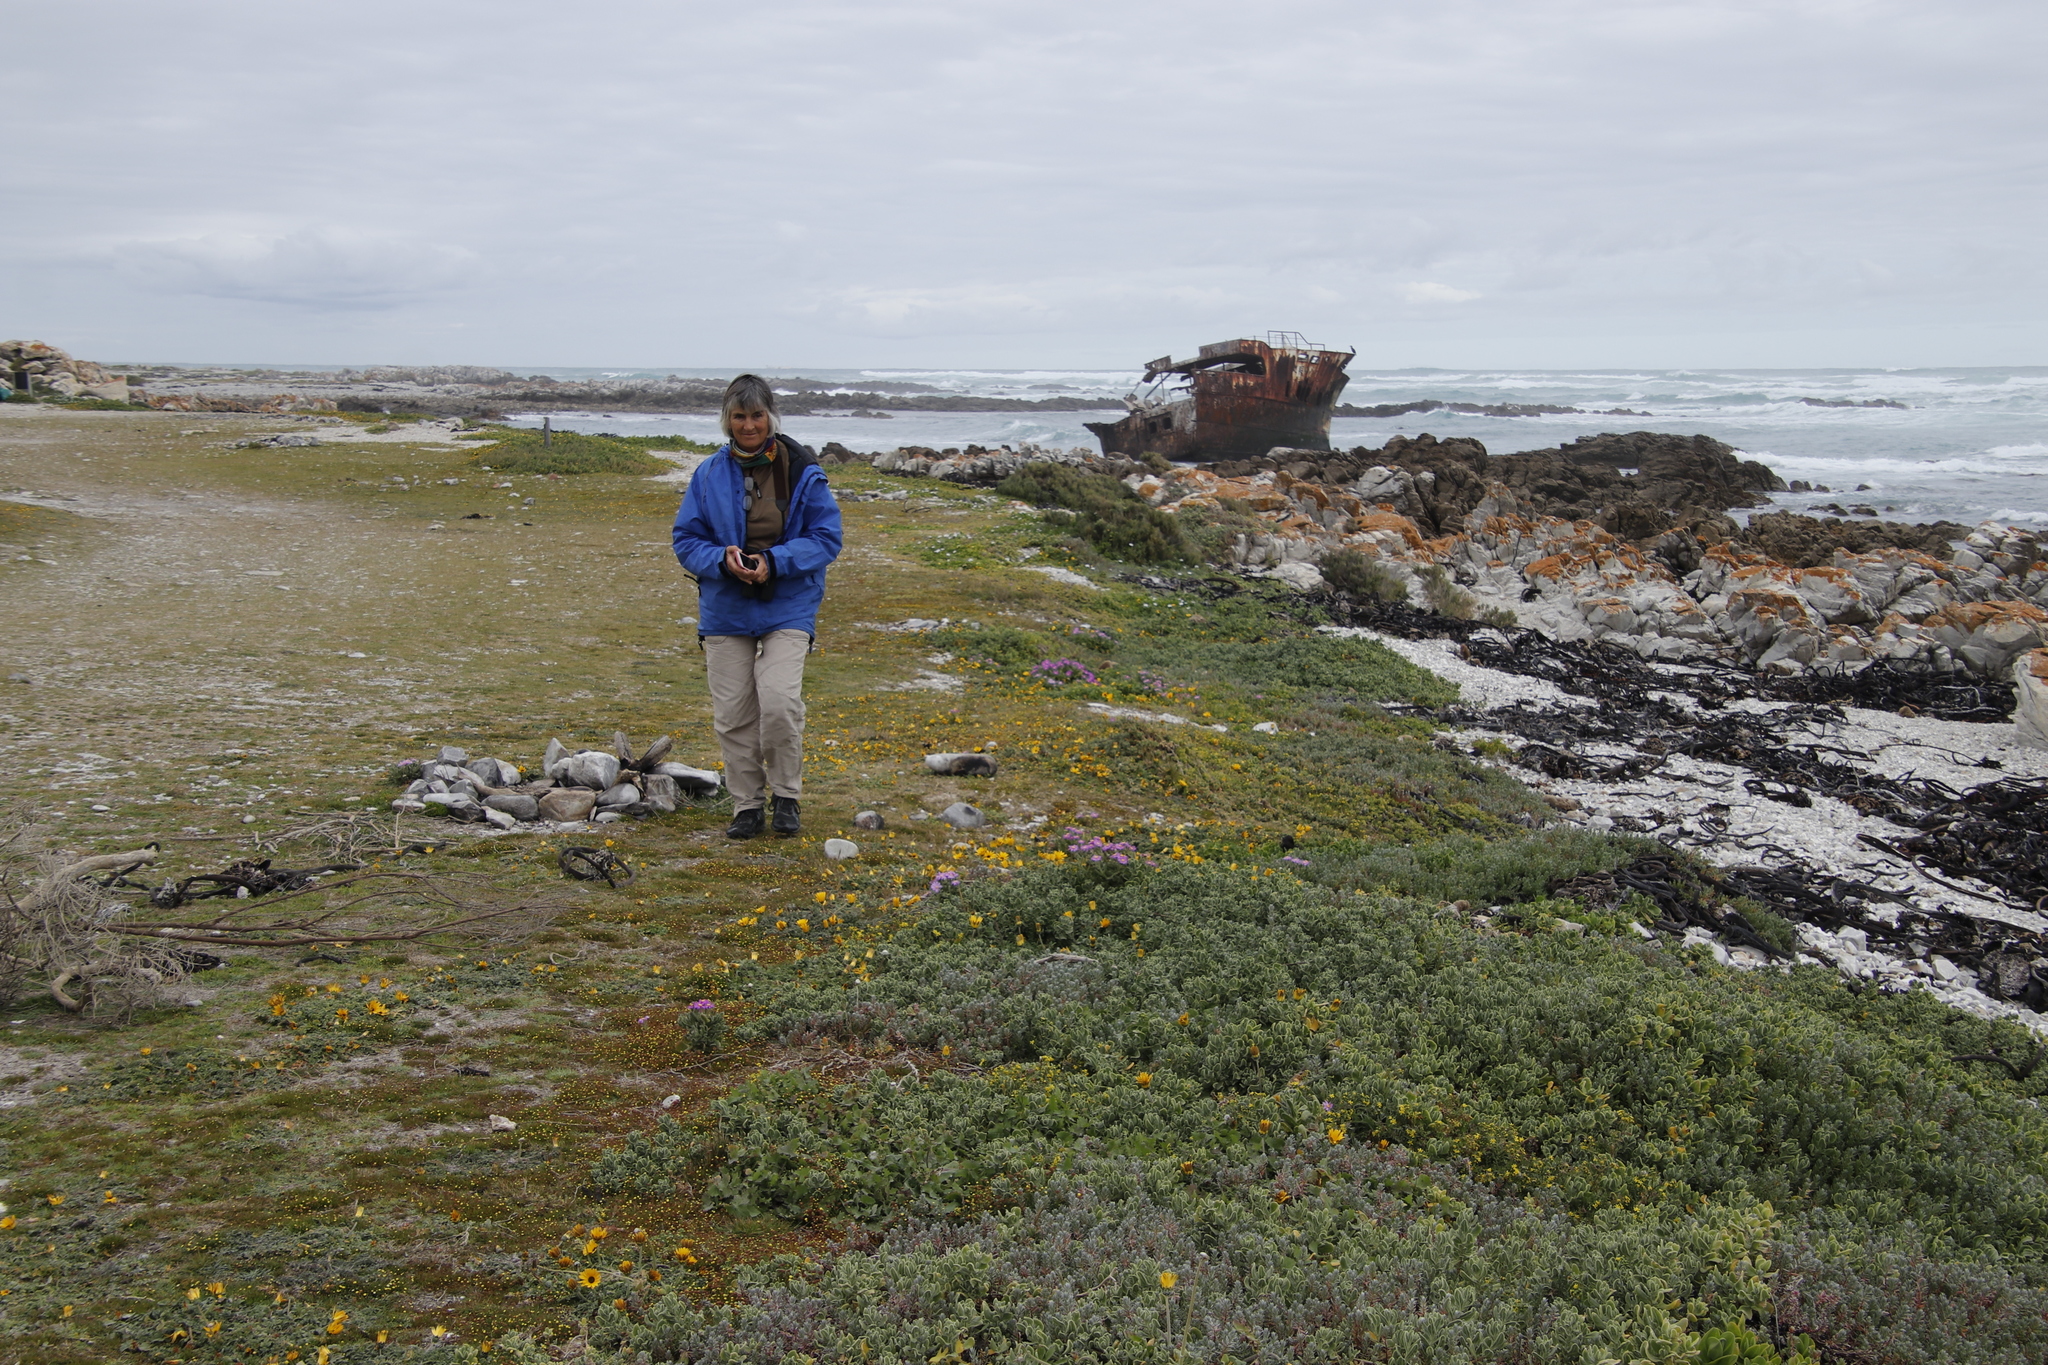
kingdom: Plantae
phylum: Tracheophyta
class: Magnoliopsida
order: Asterales
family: Asteraceae
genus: Arctotheca
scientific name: Arctotheca calendula
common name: Capeweed
